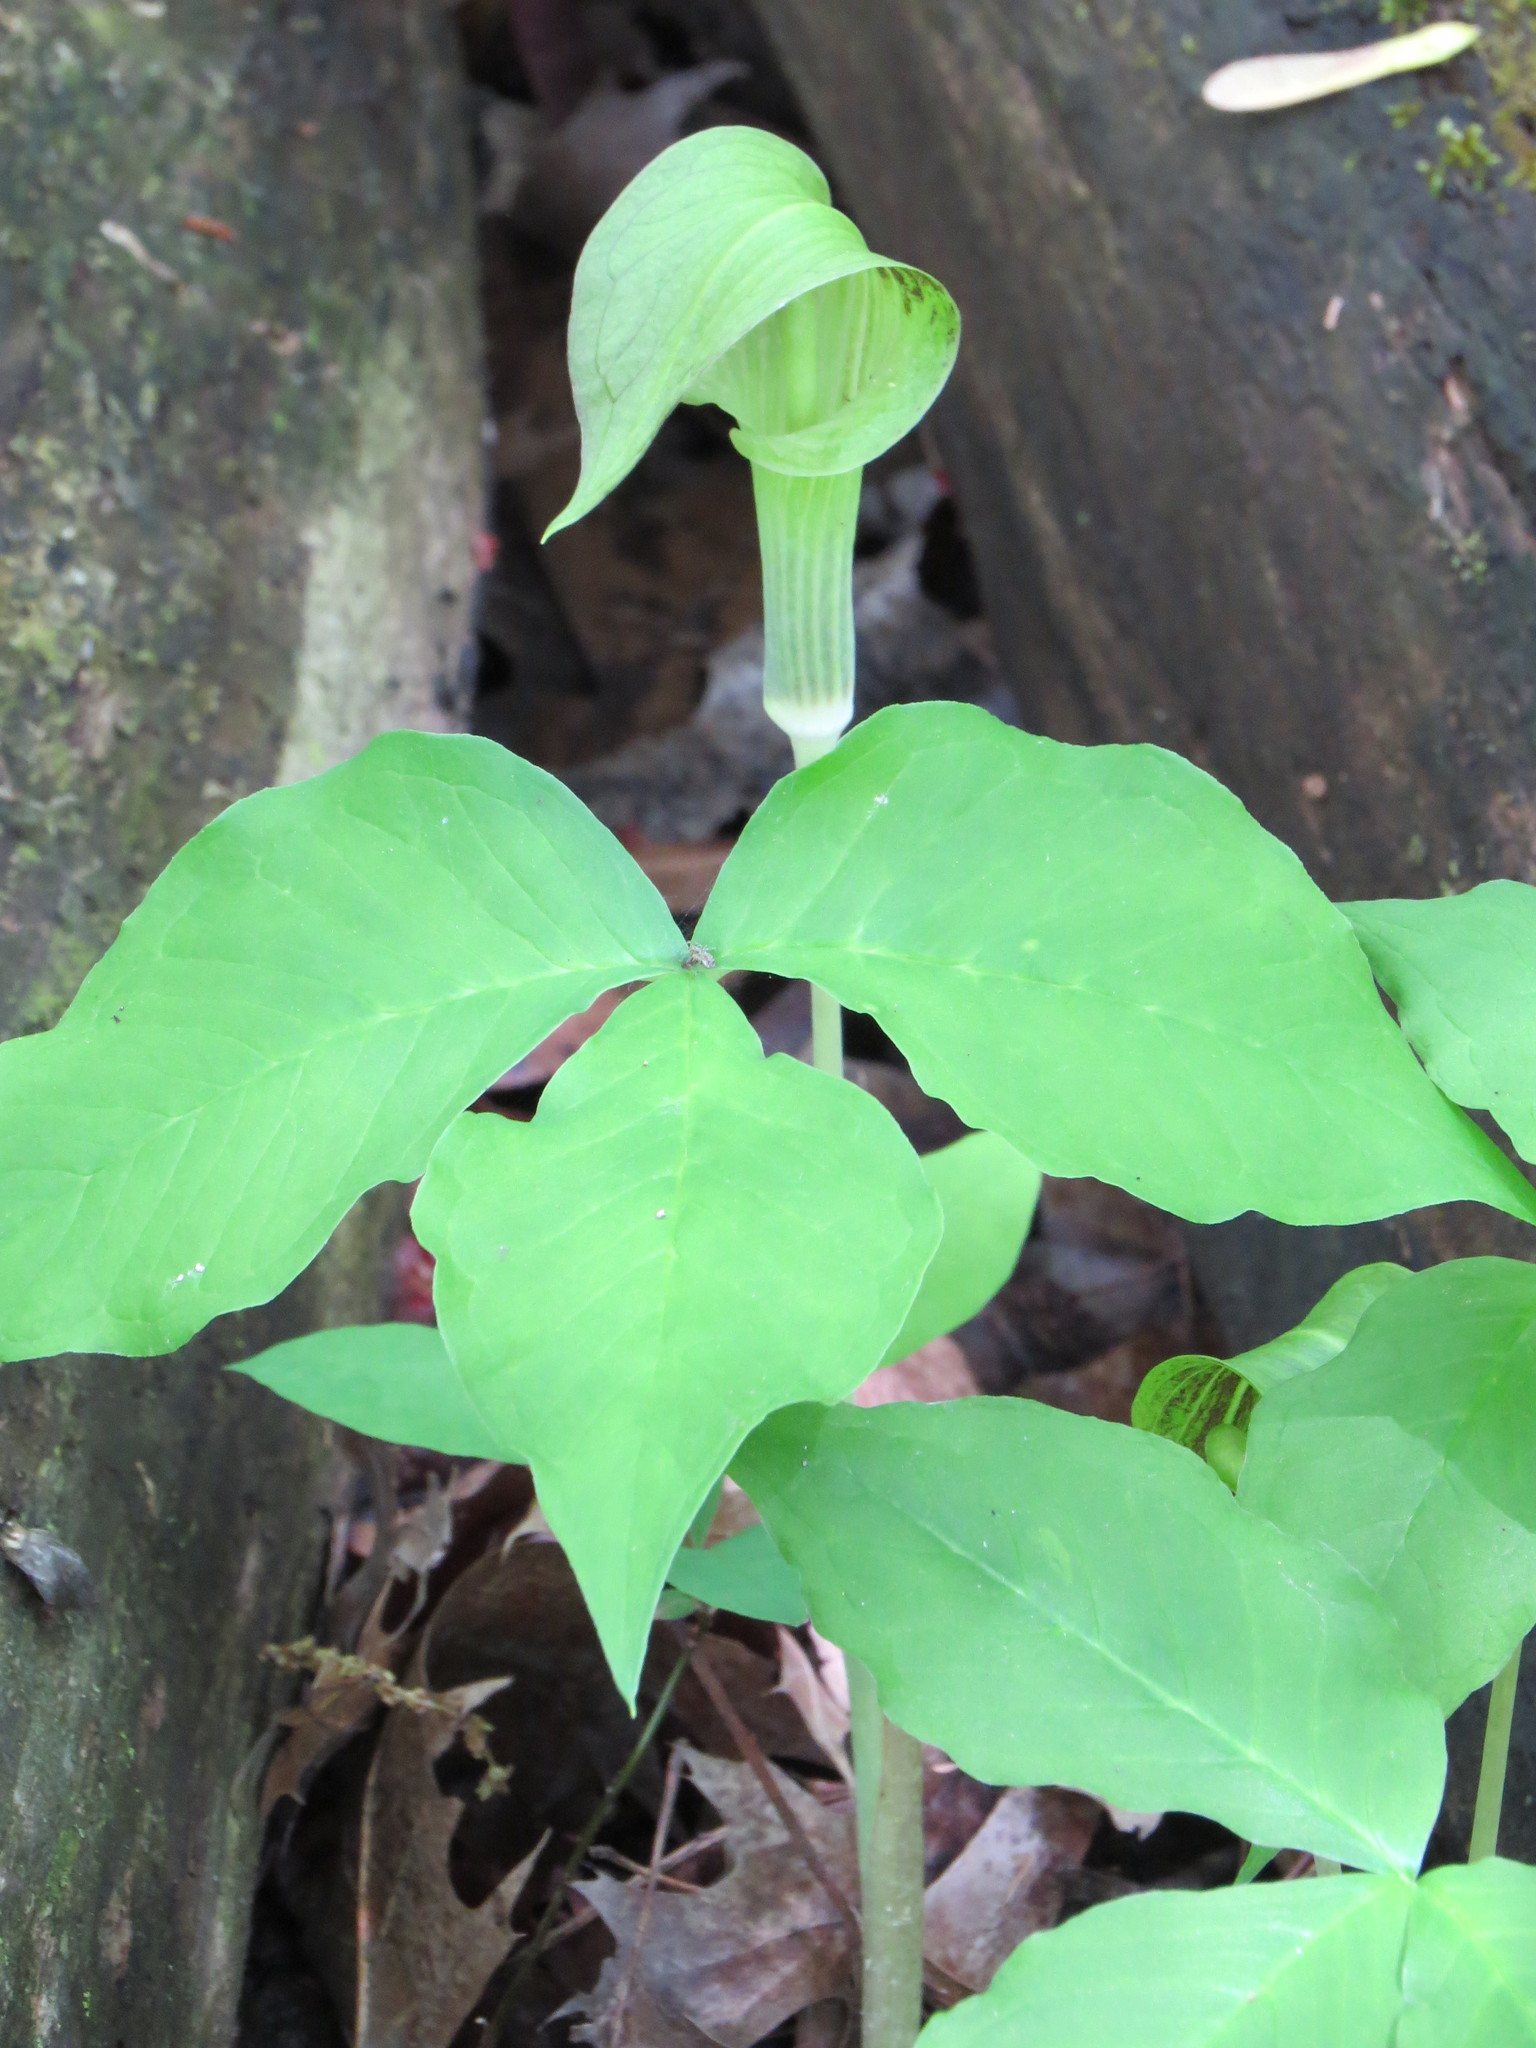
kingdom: Plantae
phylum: Tracheophyta
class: Liliopsida
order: Alismatales
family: Araceae
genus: Arisaema
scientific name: Arisaema triphyllum
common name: Jack-in-the-pulpit
